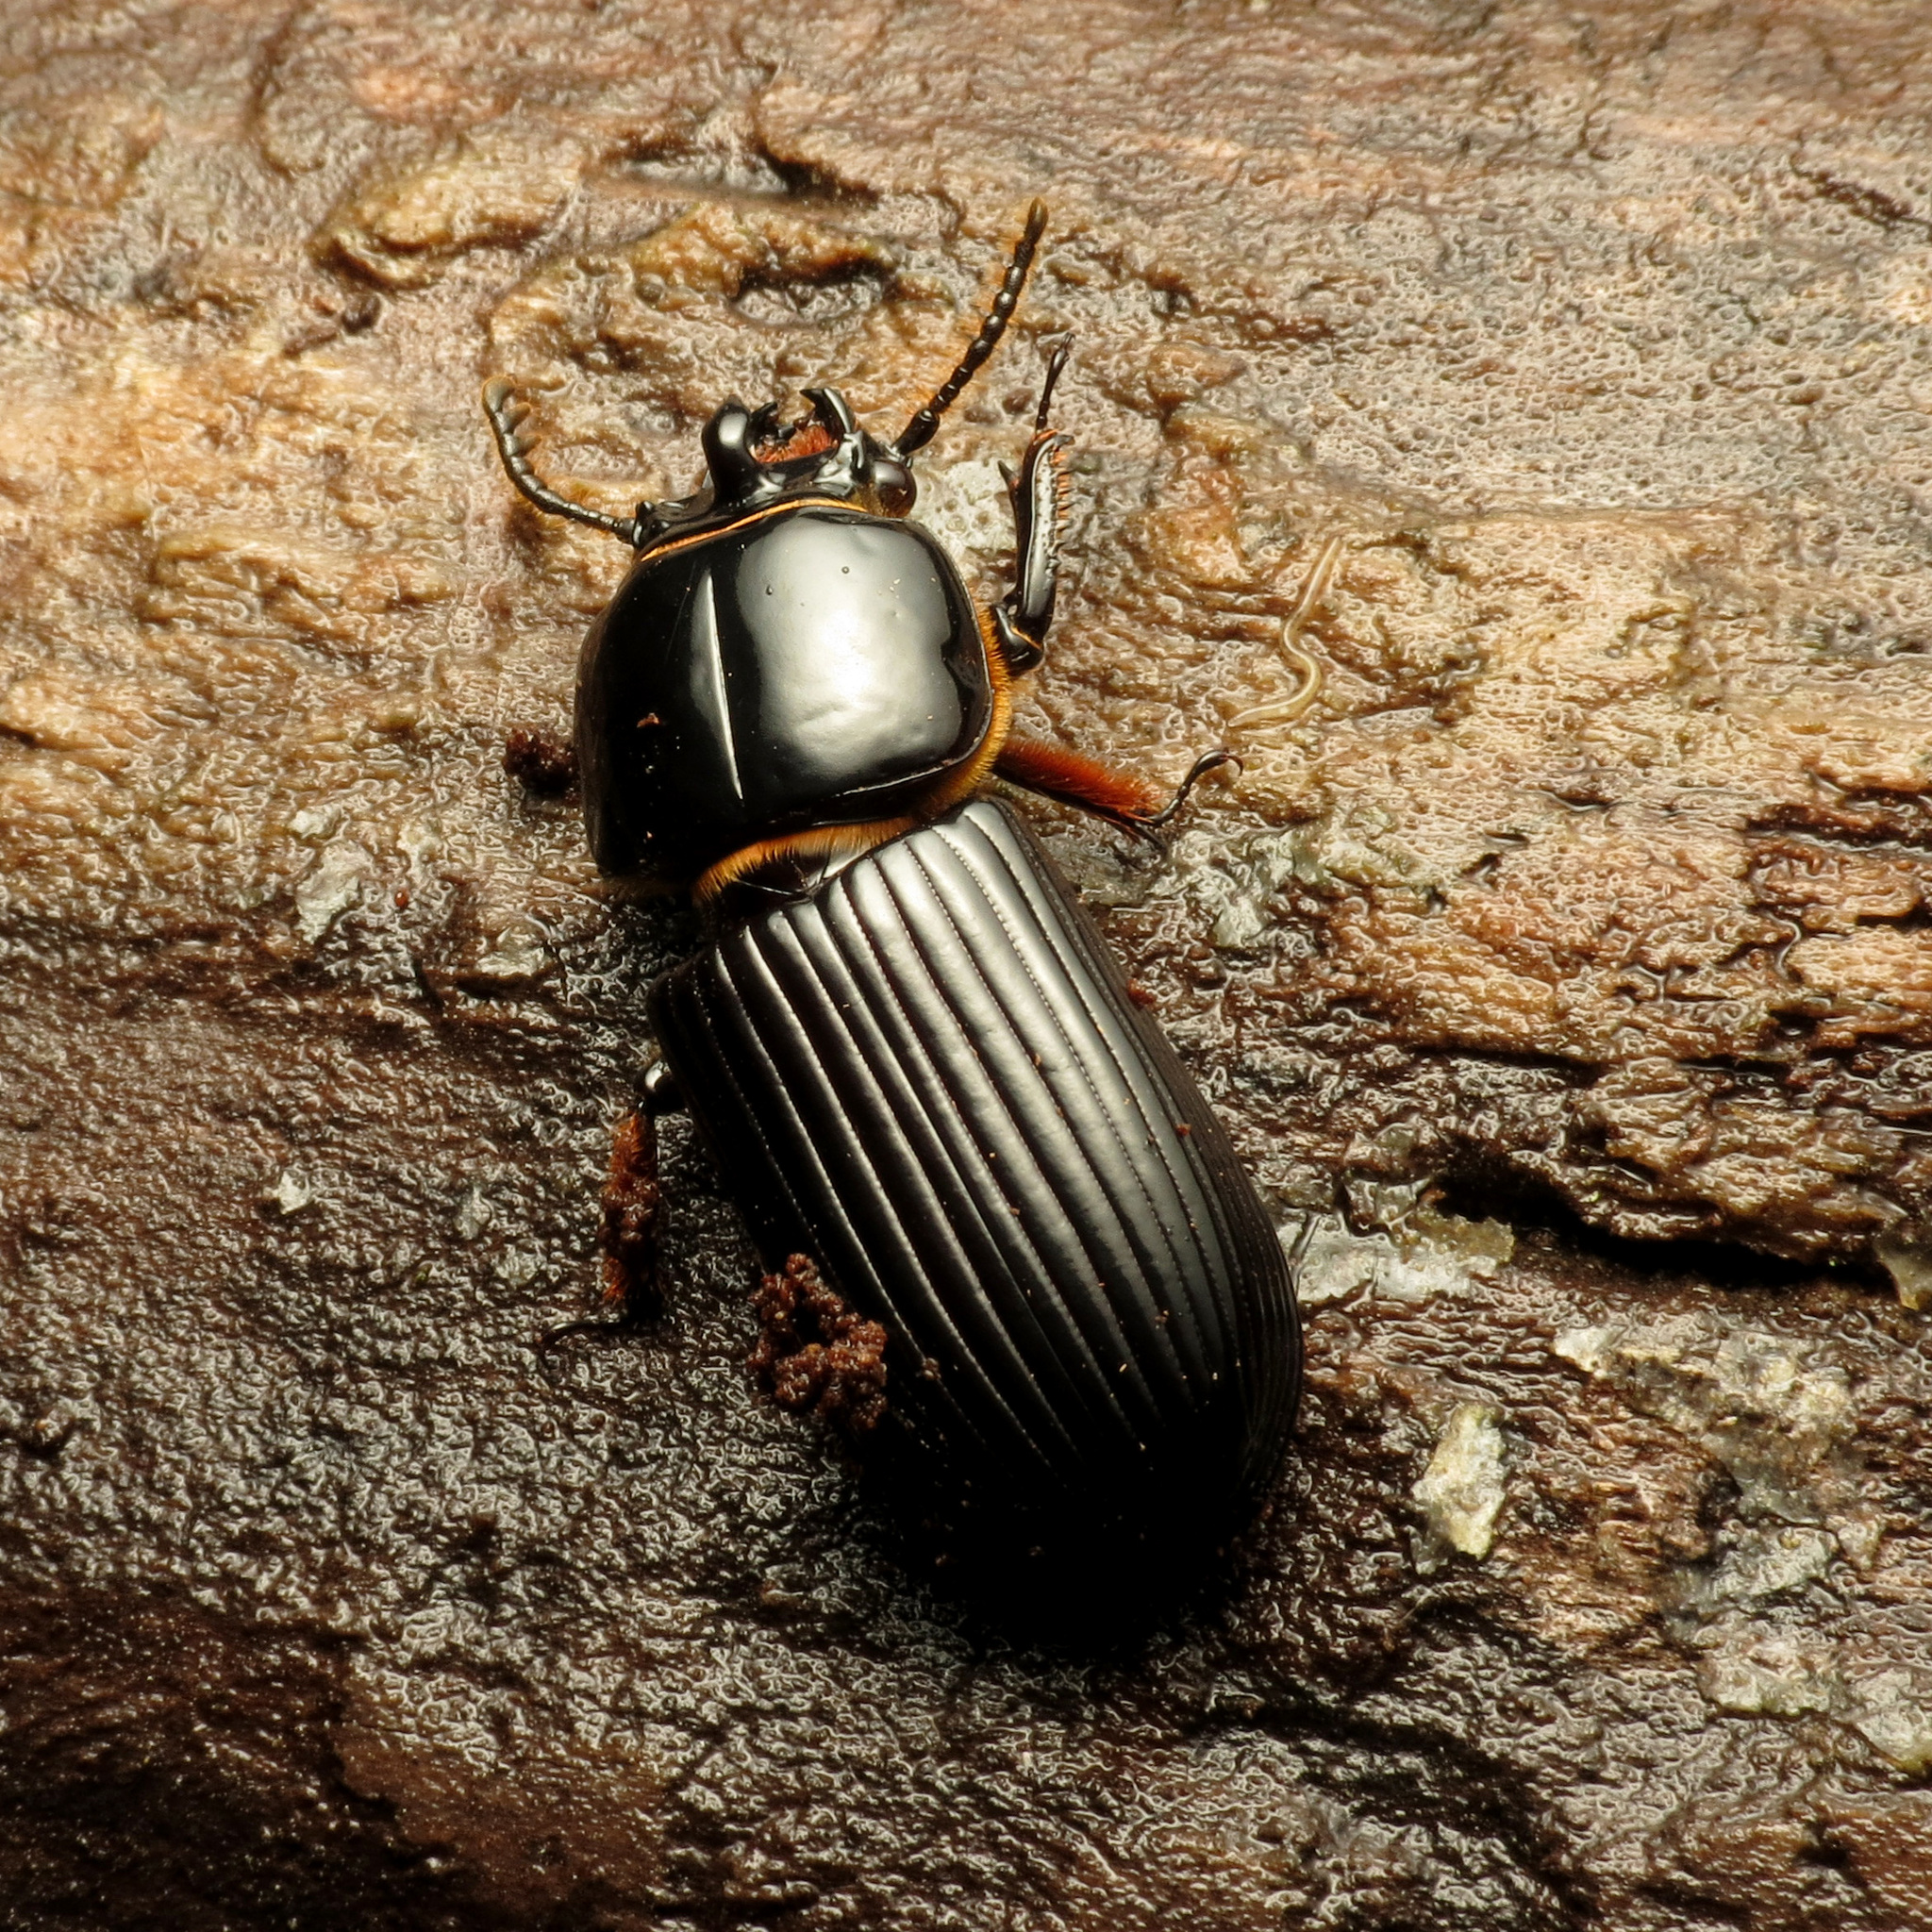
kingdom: Animalia
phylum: Arthropoda
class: Insecta
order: Coleoptera
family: Passalidae
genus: Odontotaenius
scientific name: Odontotaenius disjunctus
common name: Patent leather beetle
